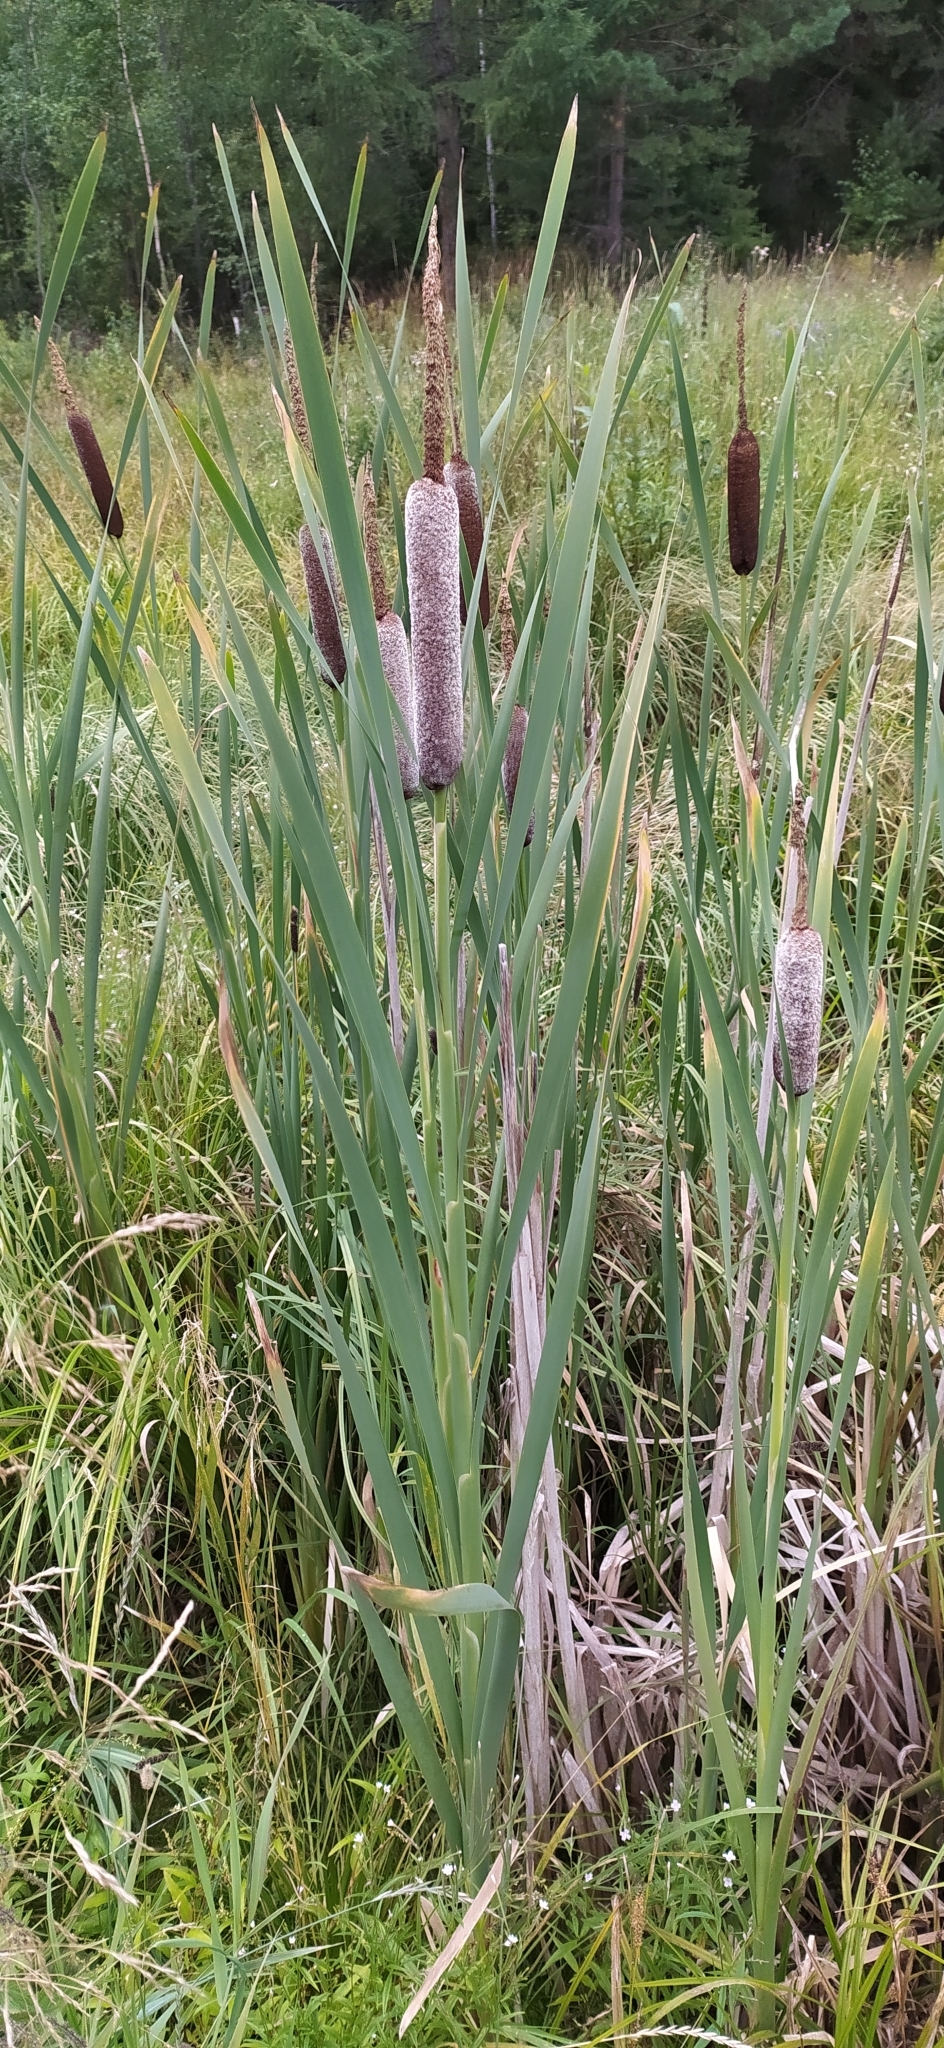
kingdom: Plantae
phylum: Tracheophyta
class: Liliopsida
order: Poales
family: Typhaceae
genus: Typha
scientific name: Typha latifolia
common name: Broadleaf cattail
